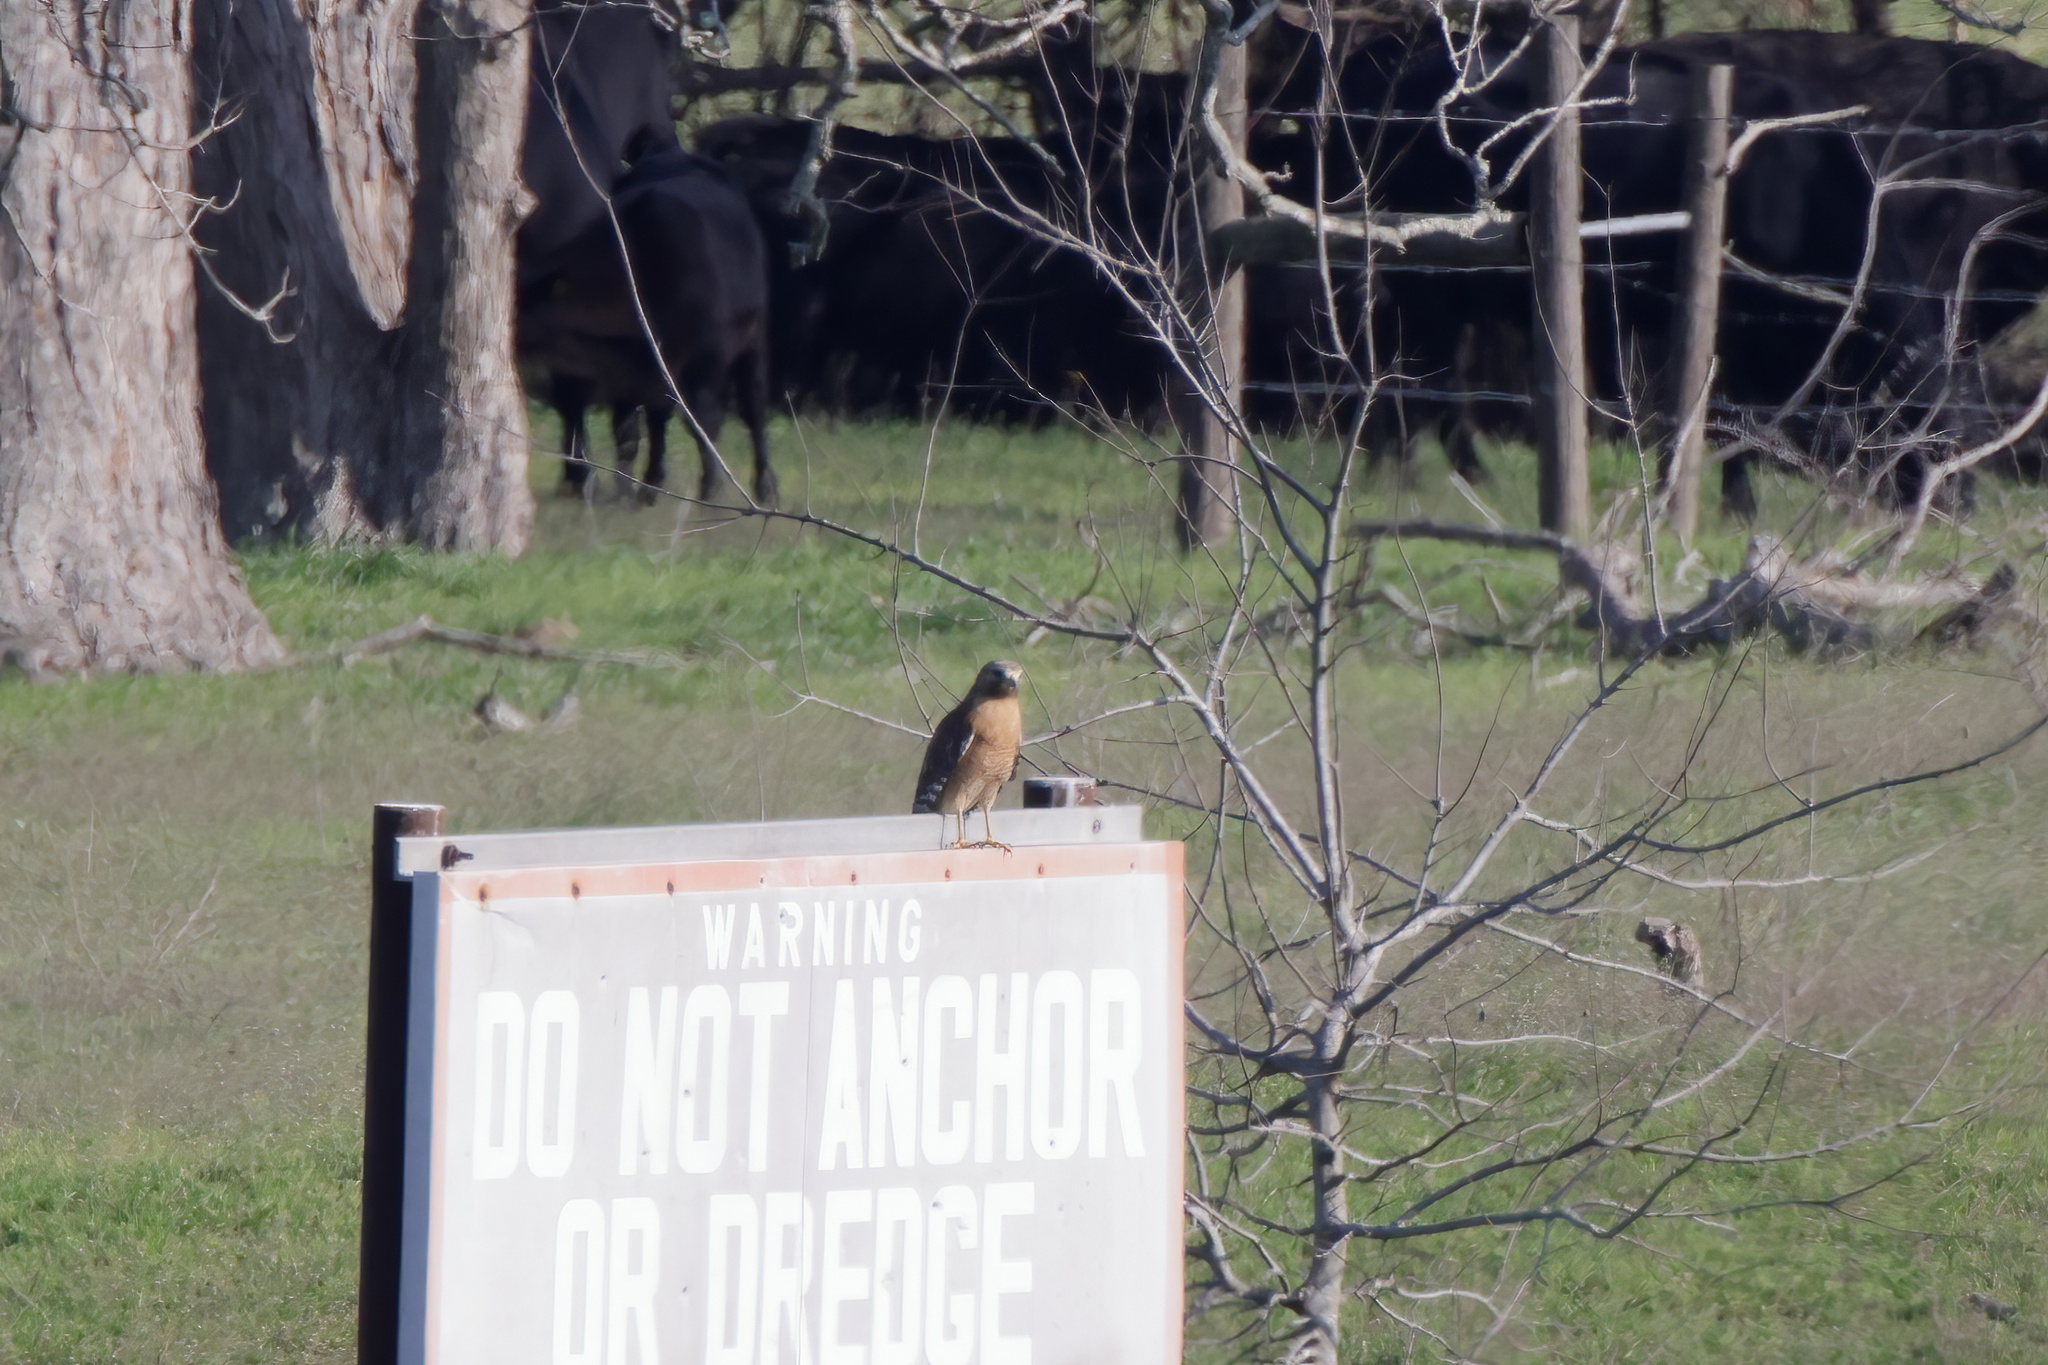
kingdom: Animalia
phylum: Chordata
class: Aves
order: Accipitriformes
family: Accipitridae
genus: Buteo
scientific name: Buteo lineatus
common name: Red-shouldered hawk
